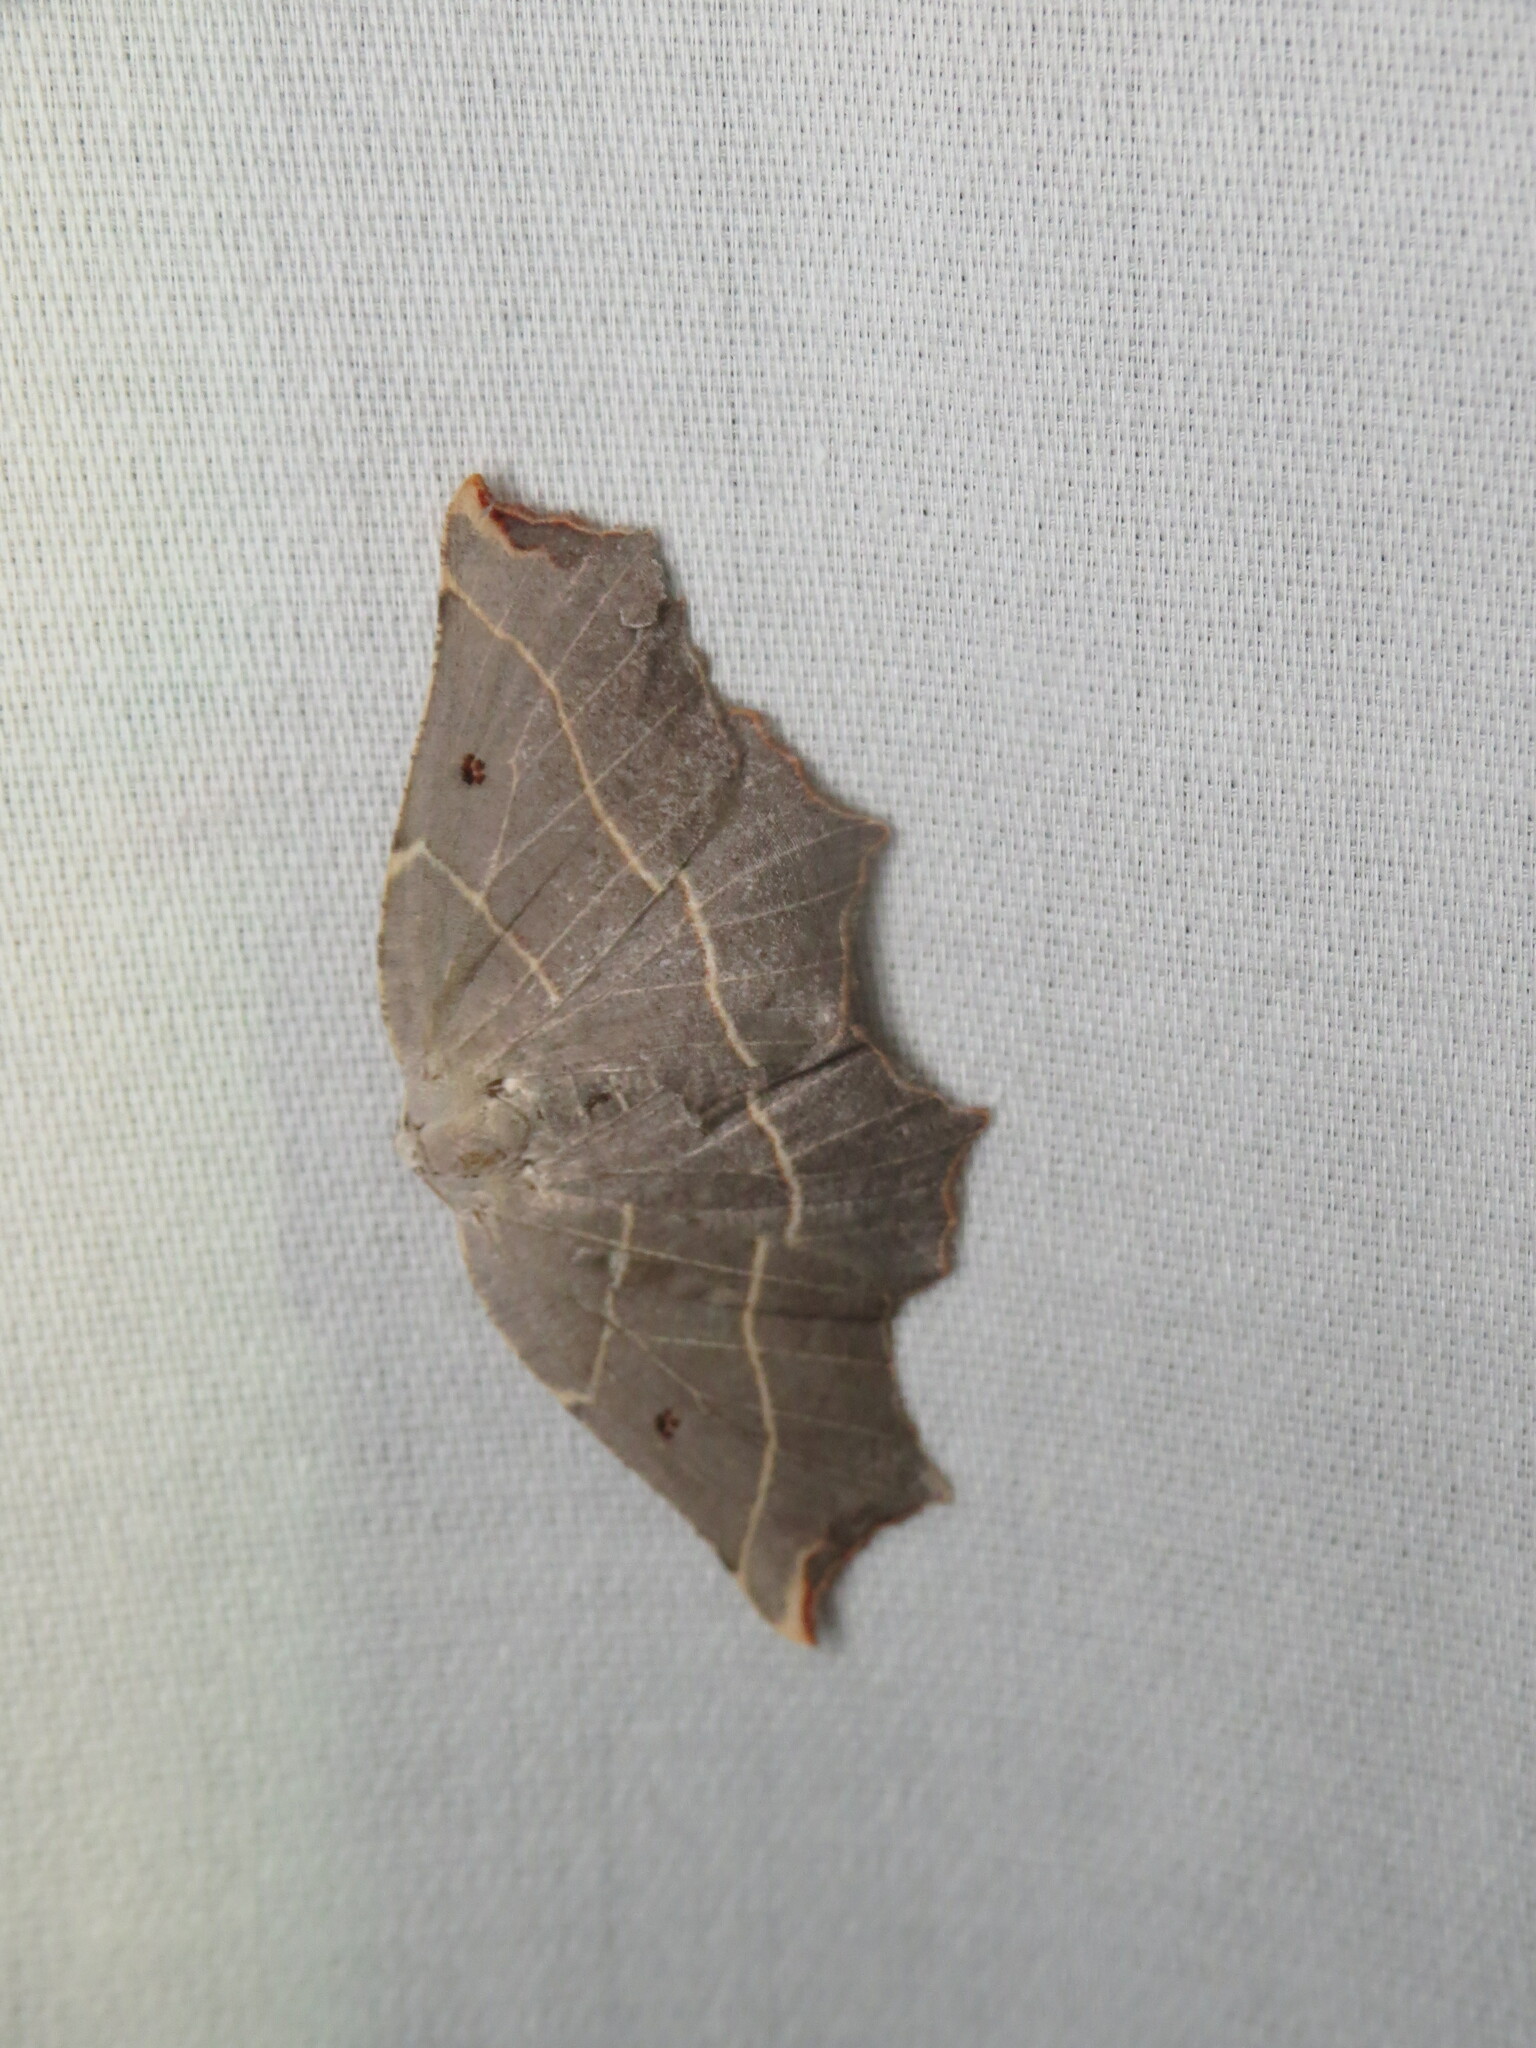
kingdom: Animalia
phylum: Arthropoda
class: Insecta
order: Lepidoptera
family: Geometridae
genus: Metanema
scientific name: Metanema inatomaria
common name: Pale metanema
